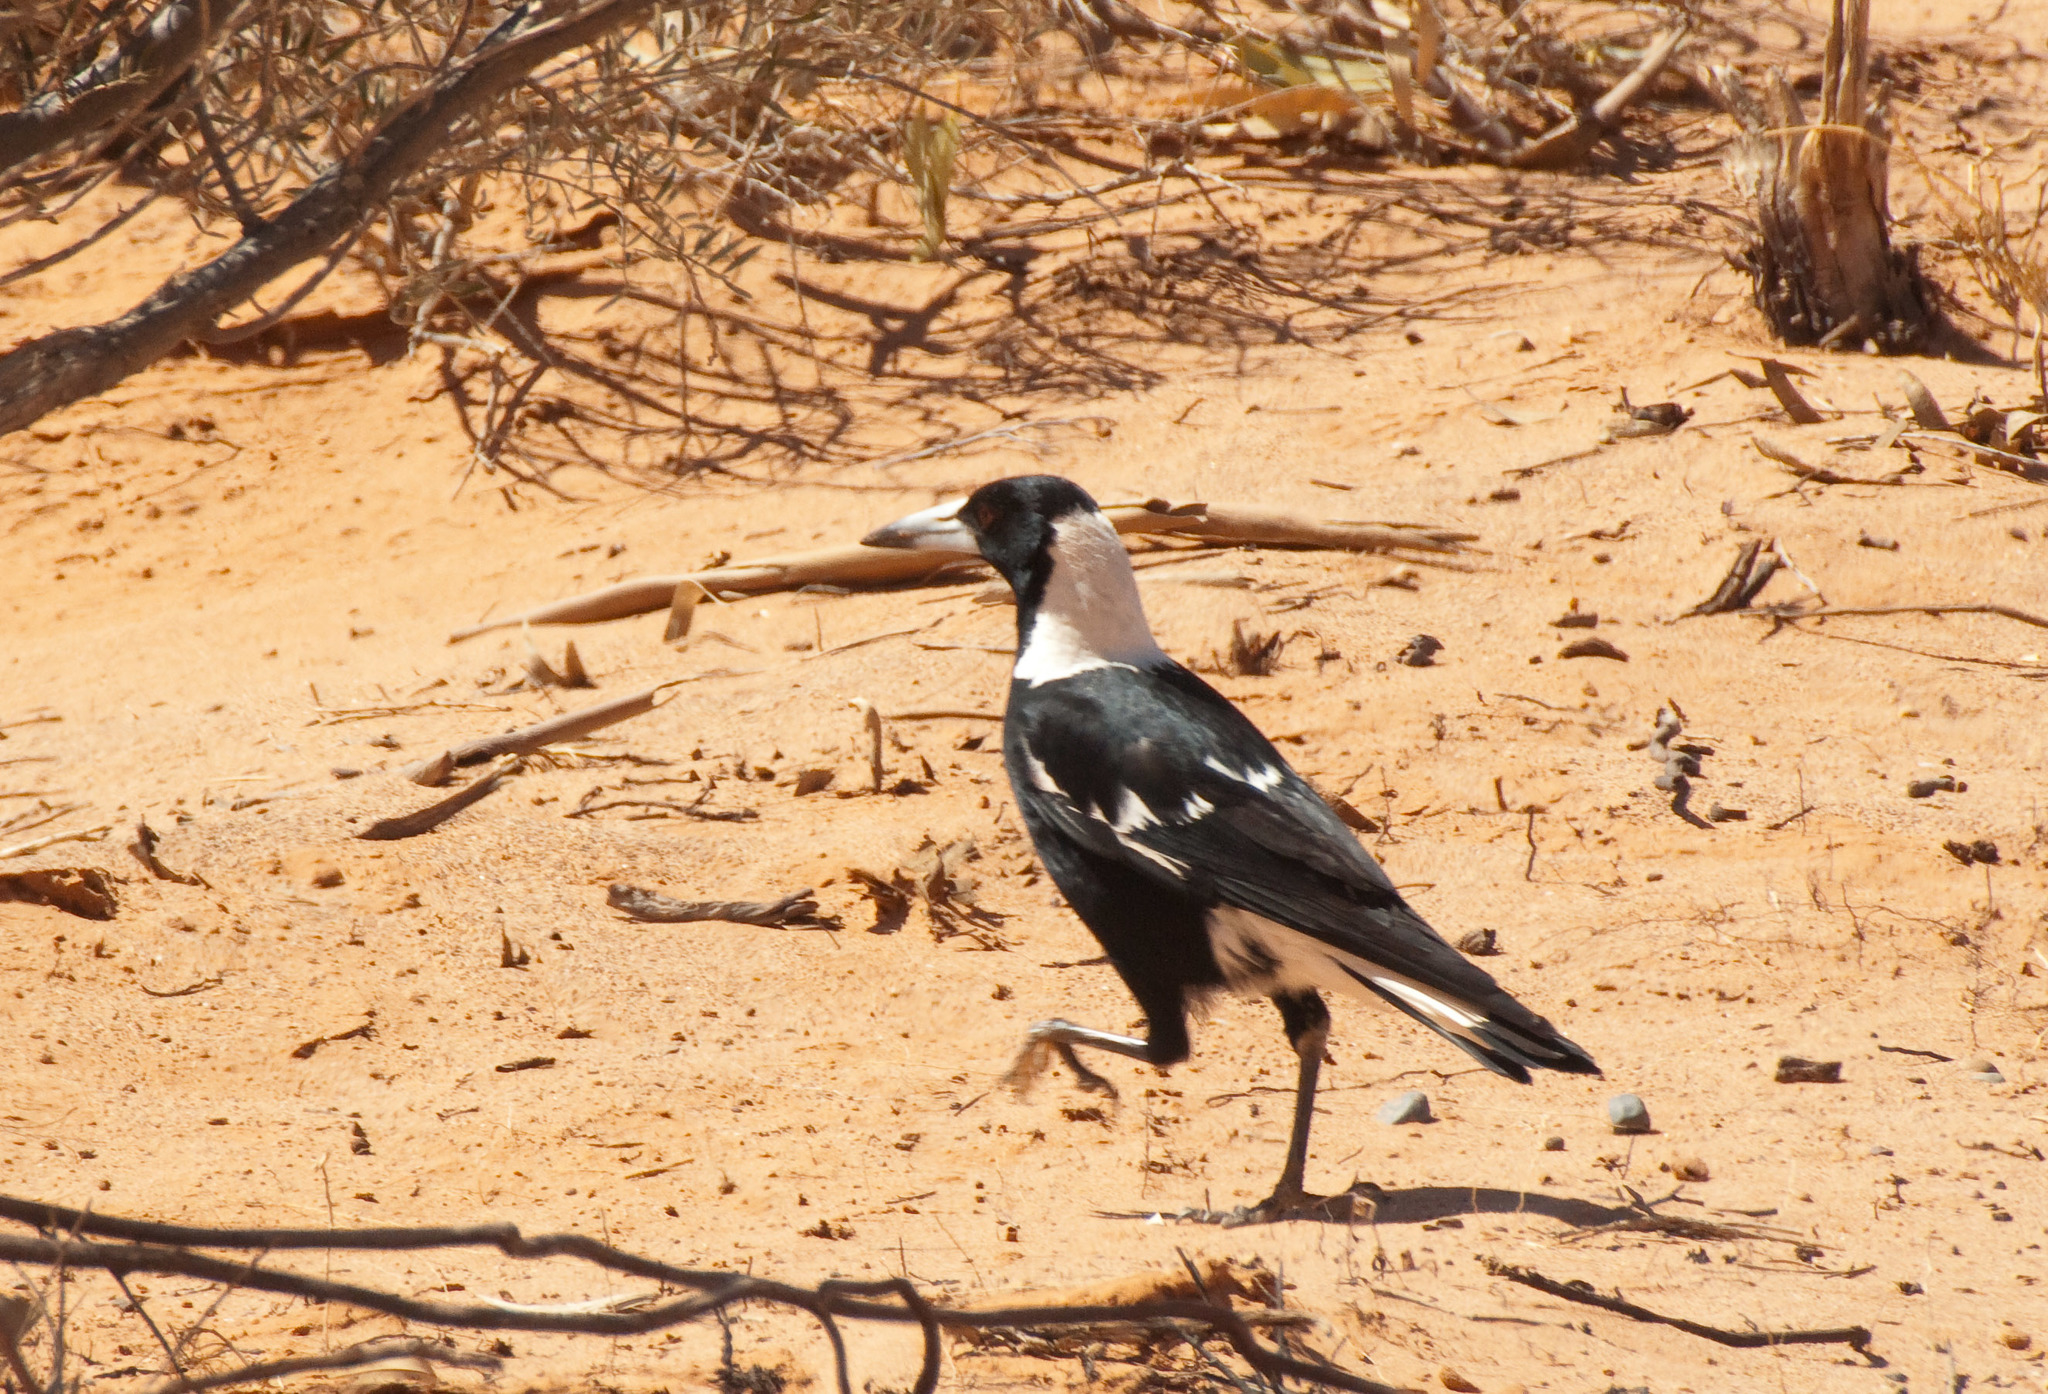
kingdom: Animalia
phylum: Chordata
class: Aves
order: Passeriformes
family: Cracticidae
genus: Gymnorhina
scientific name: Gymnorhina tibicen
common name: Australian magpie
